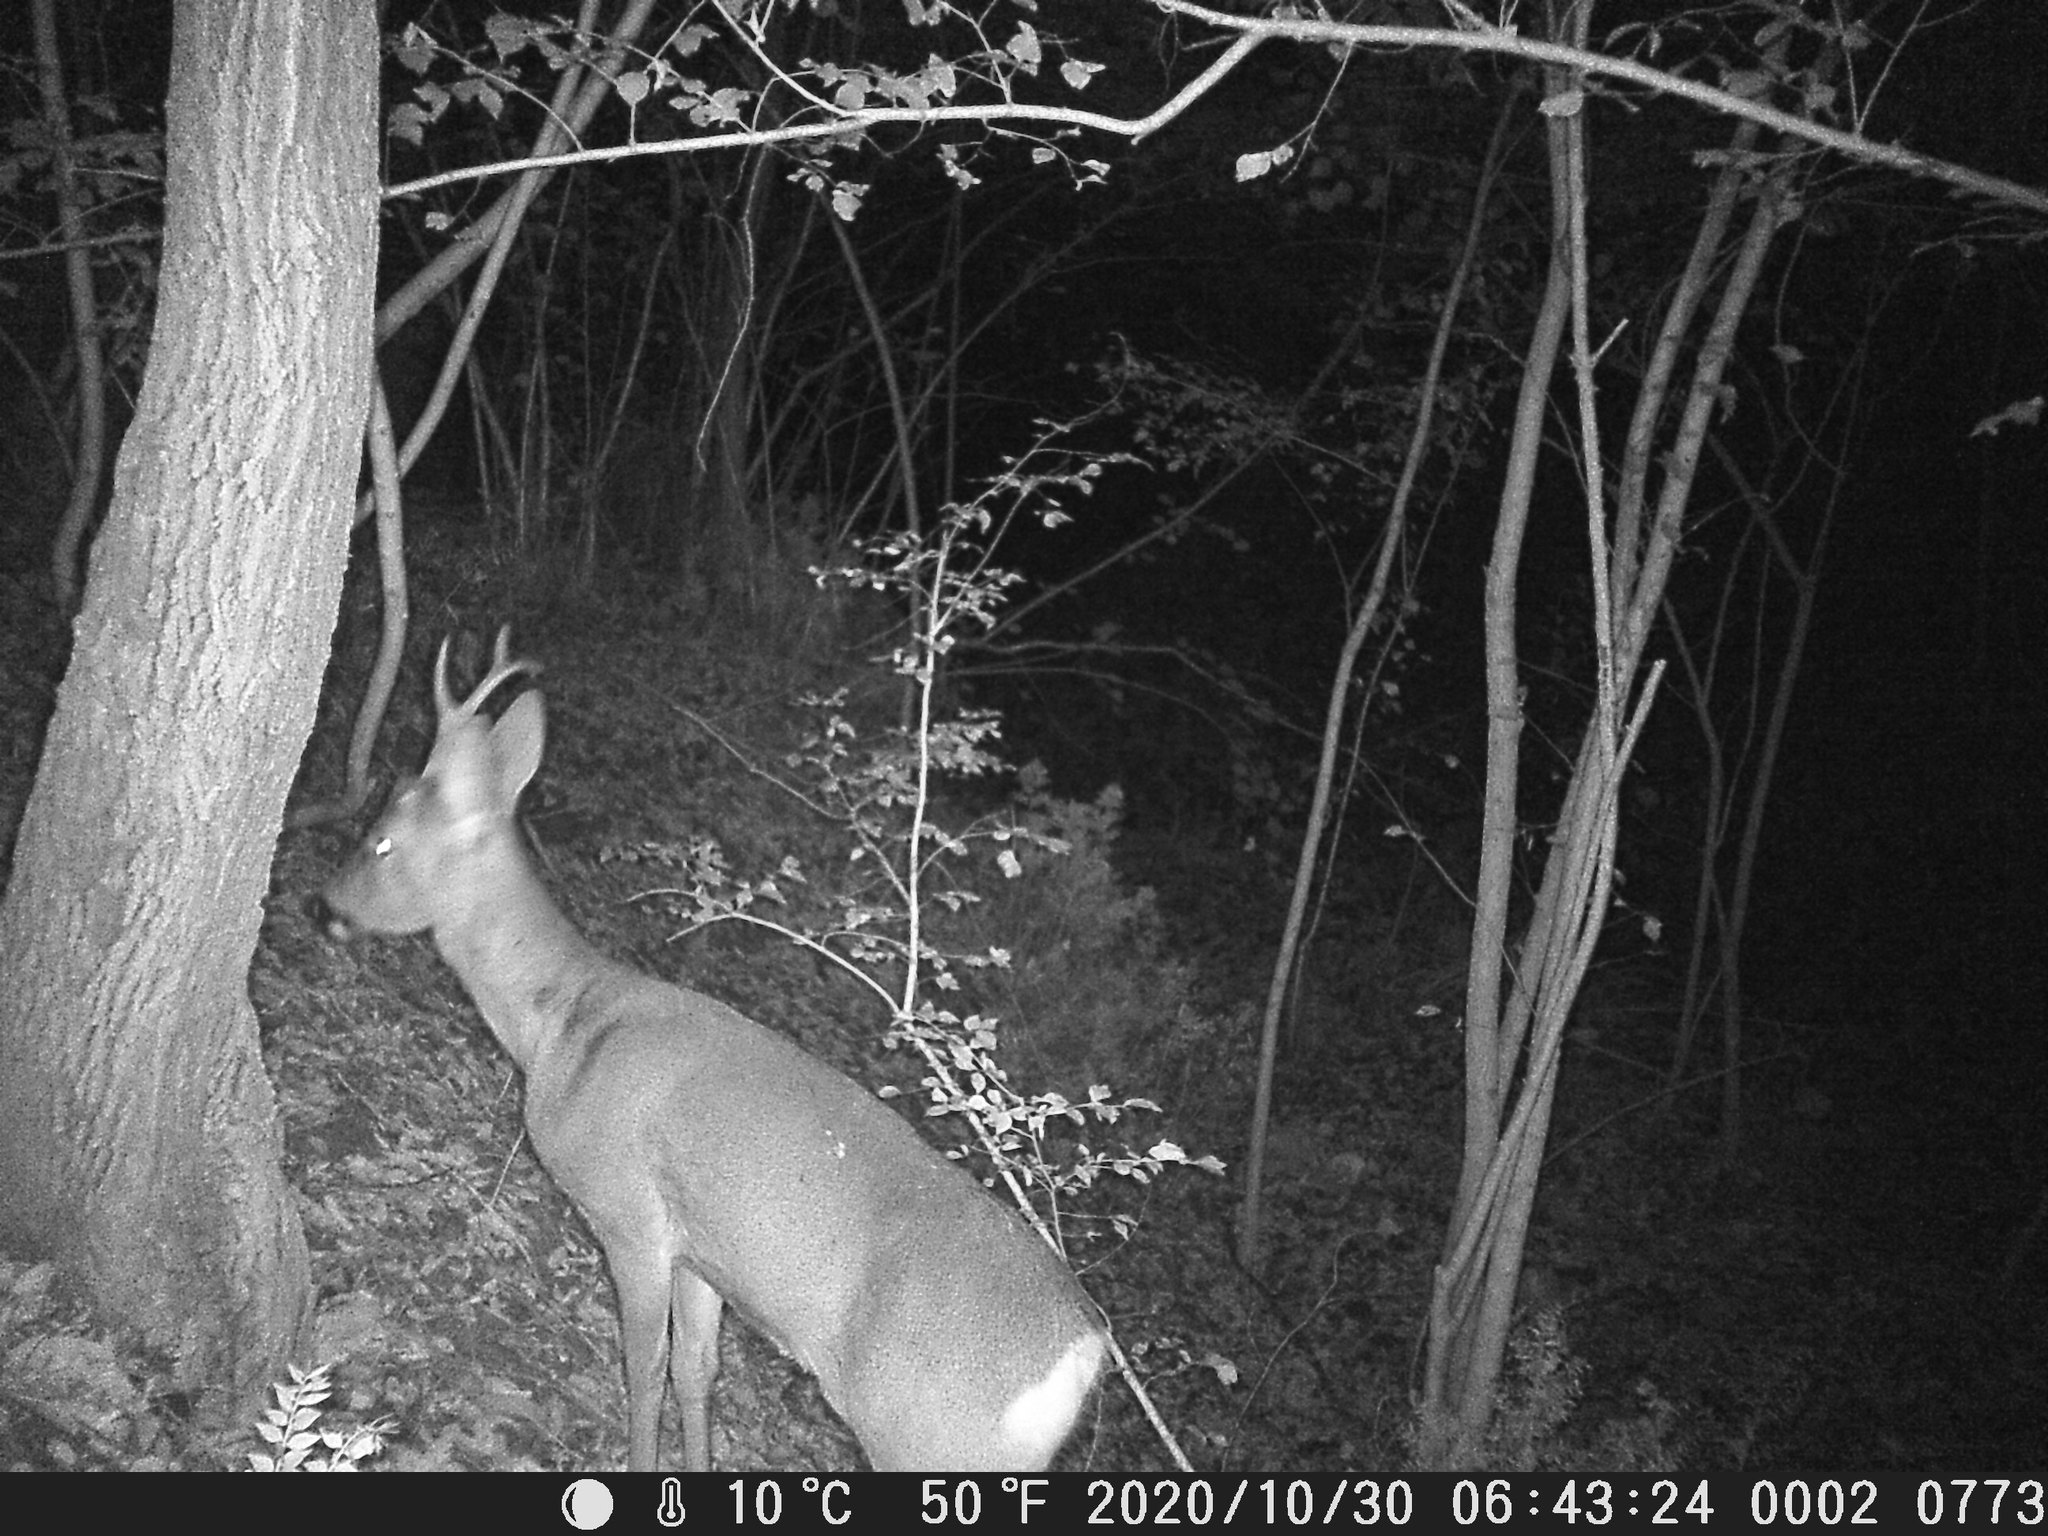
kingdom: Animalia
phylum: Chordata
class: Mammalia
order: Artiodactyla
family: Cervidae
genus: Capreolus
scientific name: Capreolus capreolus
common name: Western roe deer
